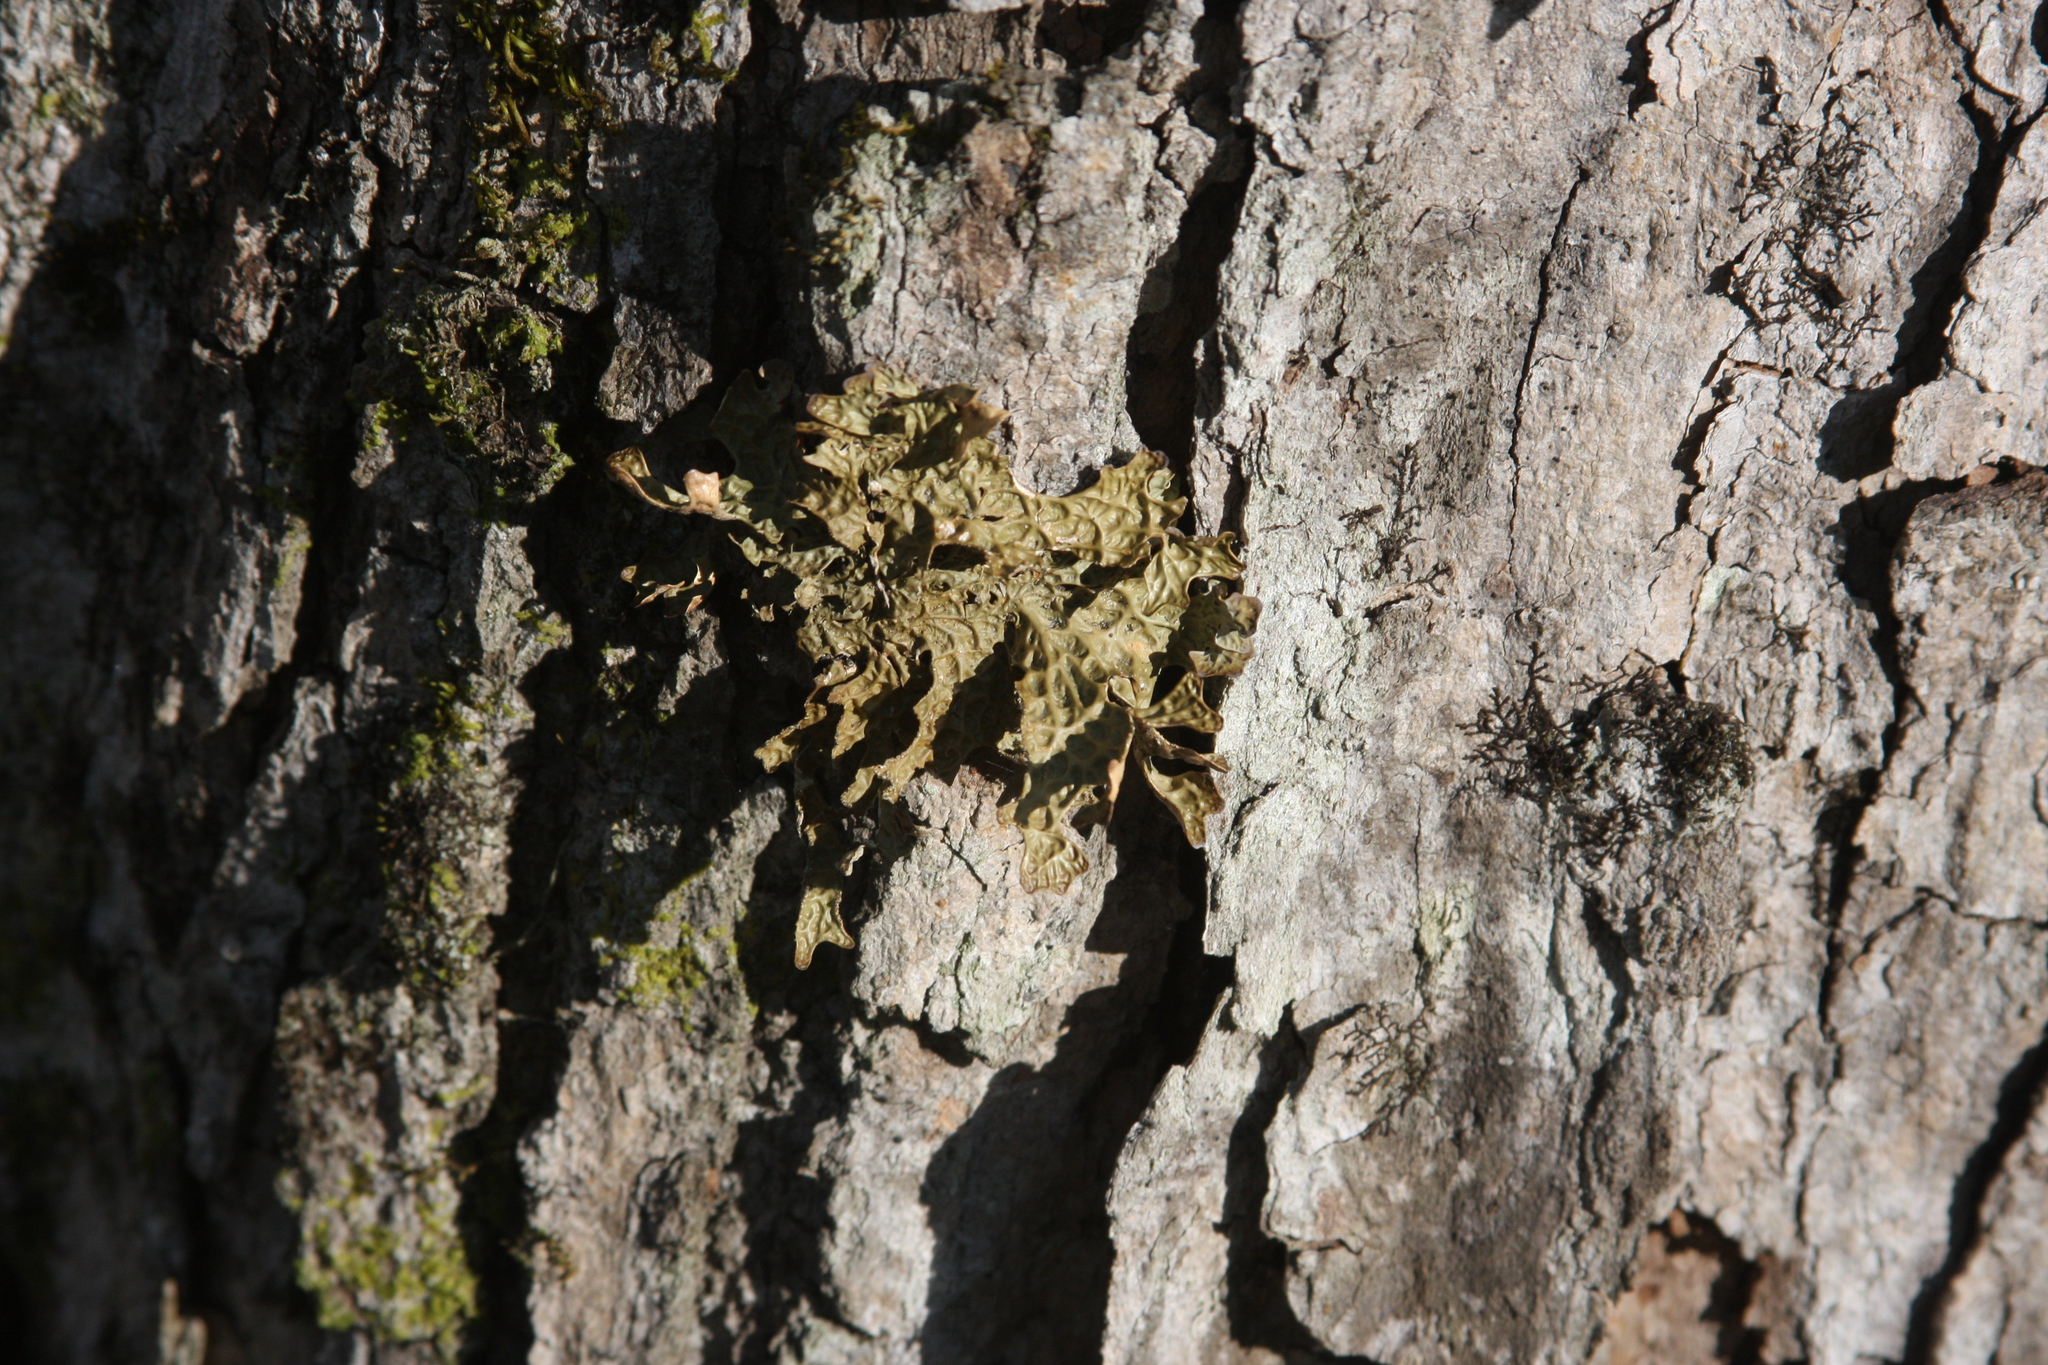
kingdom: Fungi
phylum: Ascomycota
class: Lecanoromycetes
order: Peltigerales
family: Lobariaceae
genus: Lobaria
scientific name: Lobaria pulmonaria
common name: Lungwort
